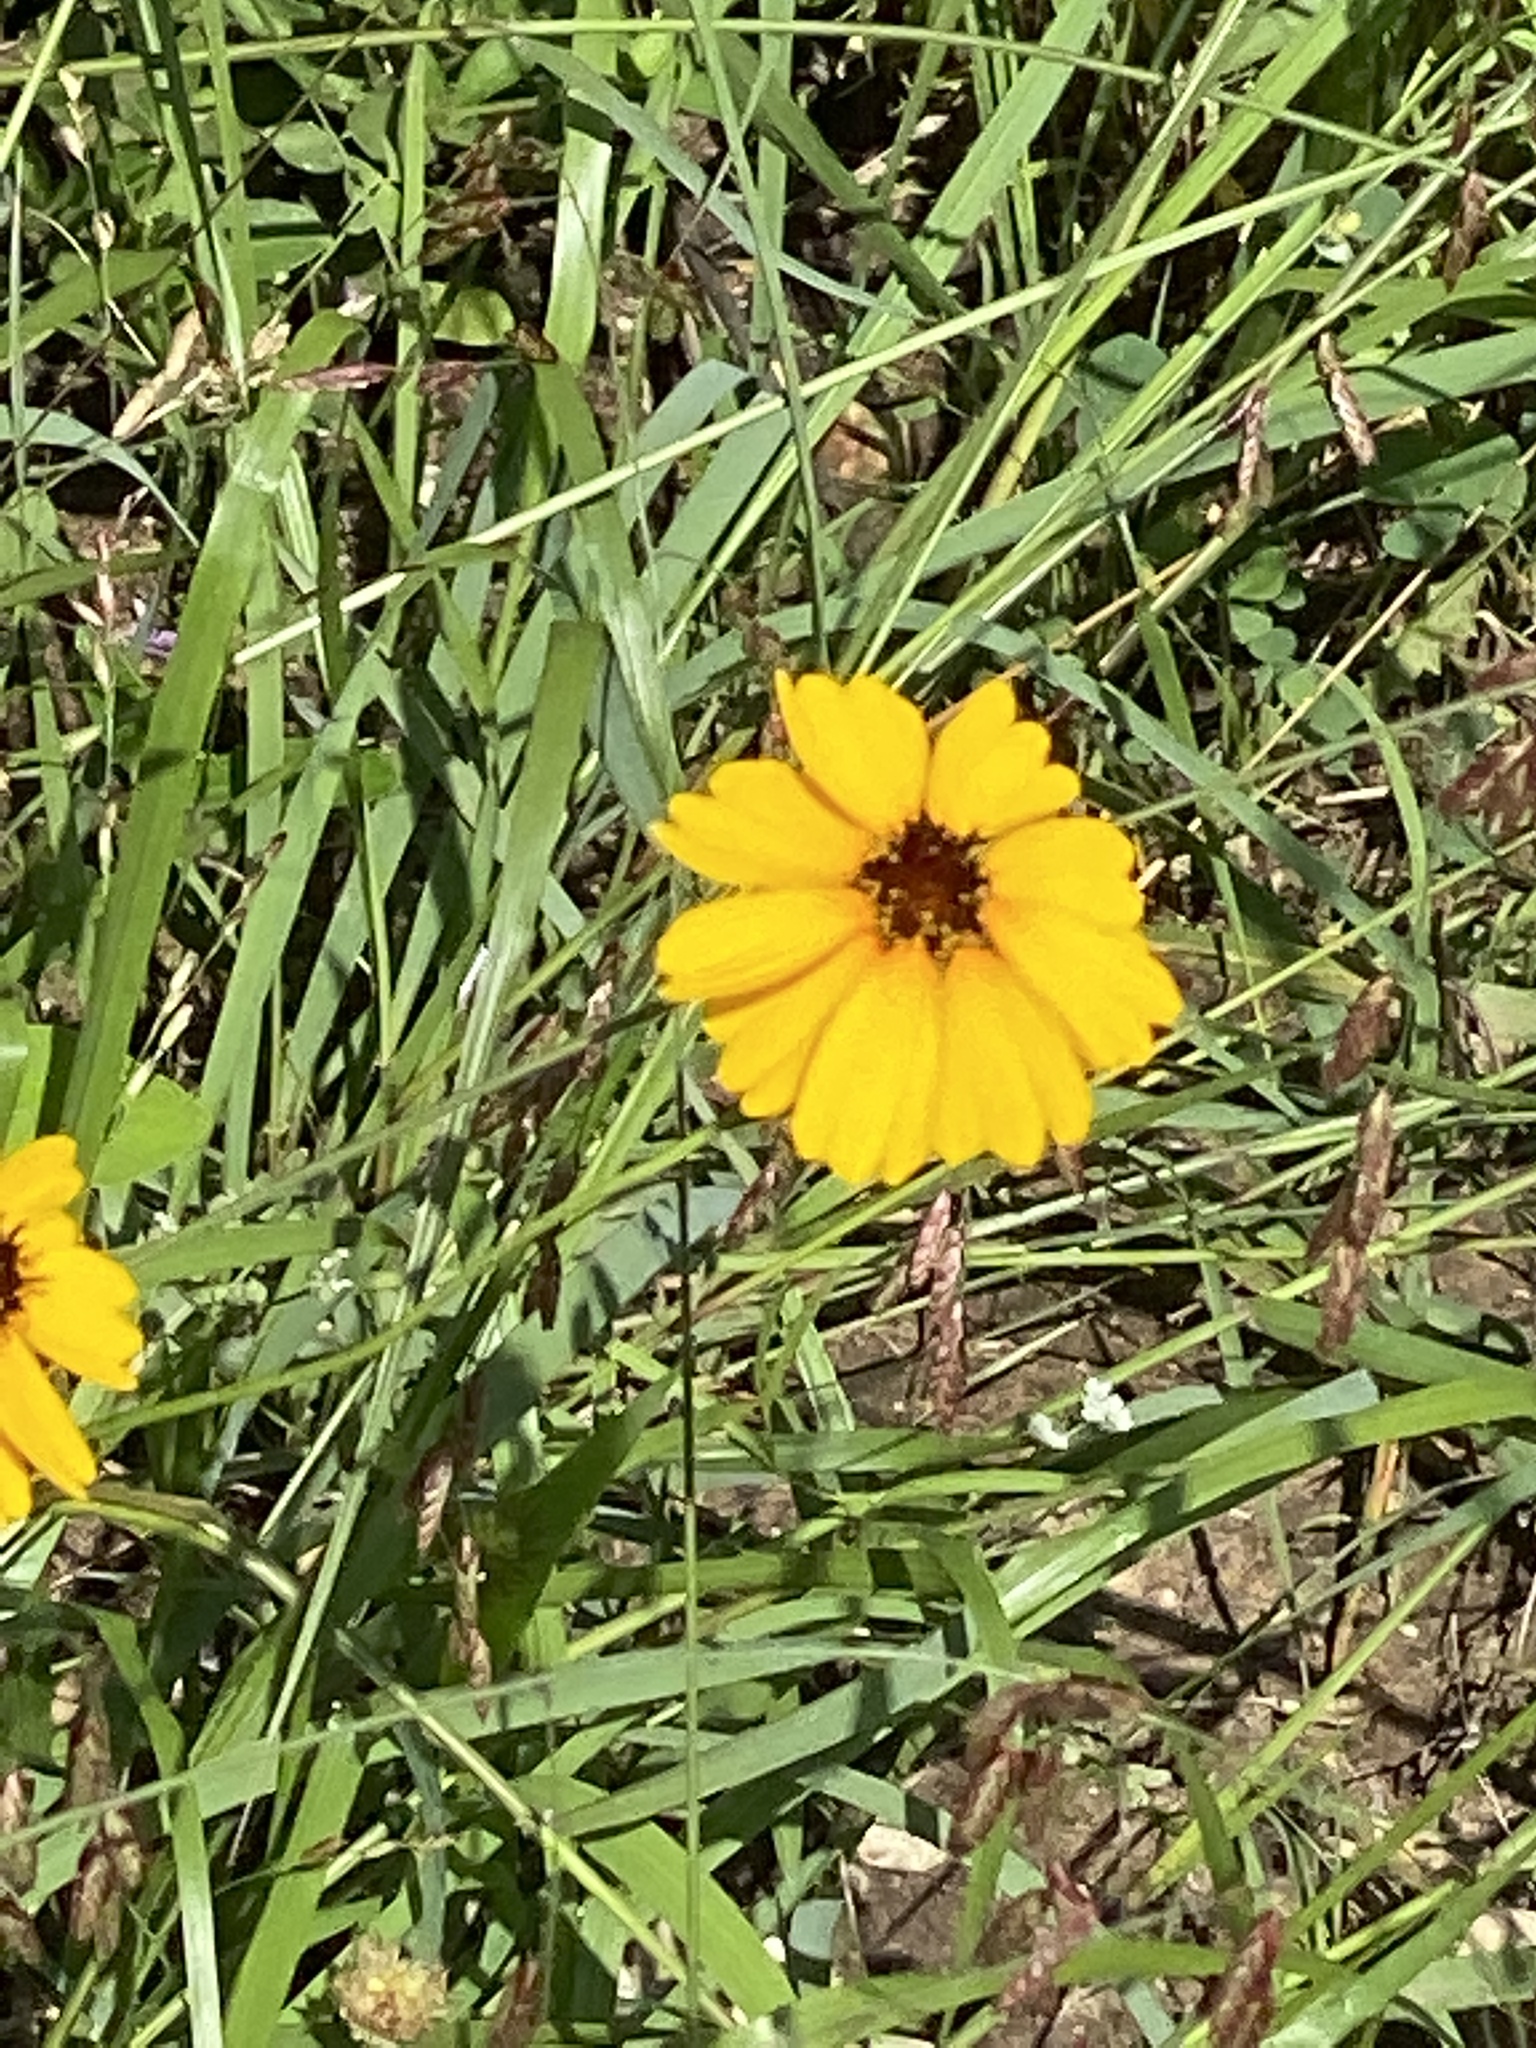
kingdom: Plantae
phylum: Tracheophyta
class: Magnoliopsida
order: Asterales
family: Asteraceae
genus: Thelesperma
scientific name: Thelesperma filifolium
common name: Stiff greenthread
